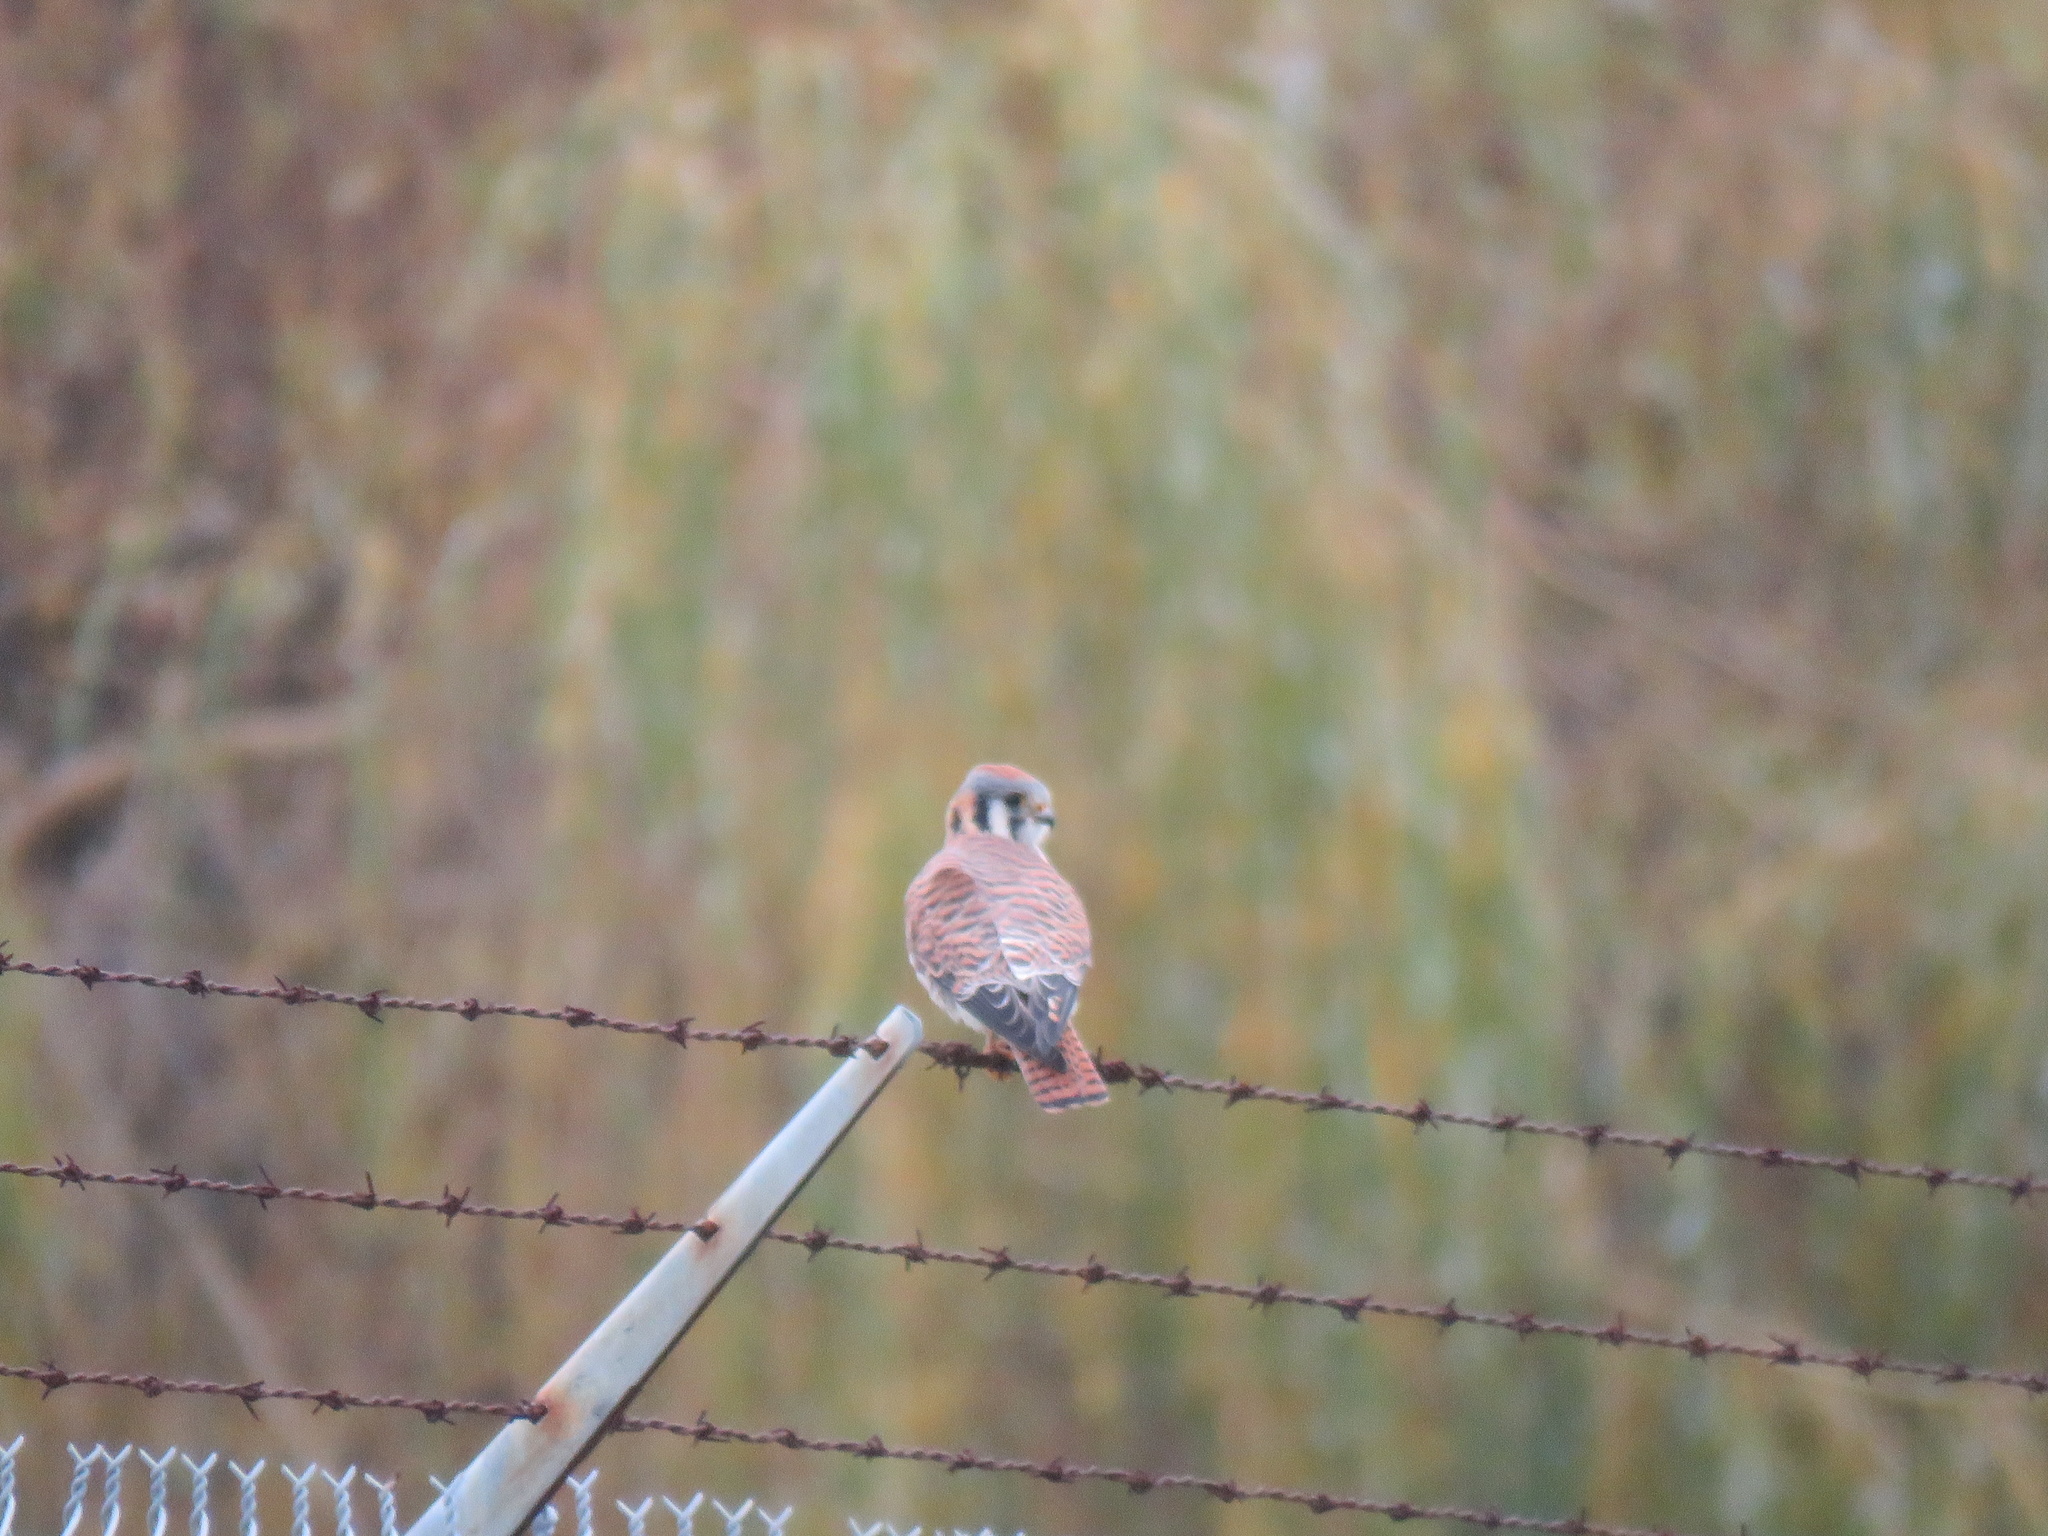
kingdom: Animalia
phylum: Chordata
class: Aves
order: Falconiformes
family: Falconidae
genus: Falco
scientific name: Falco sparverius
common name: American kestrel
